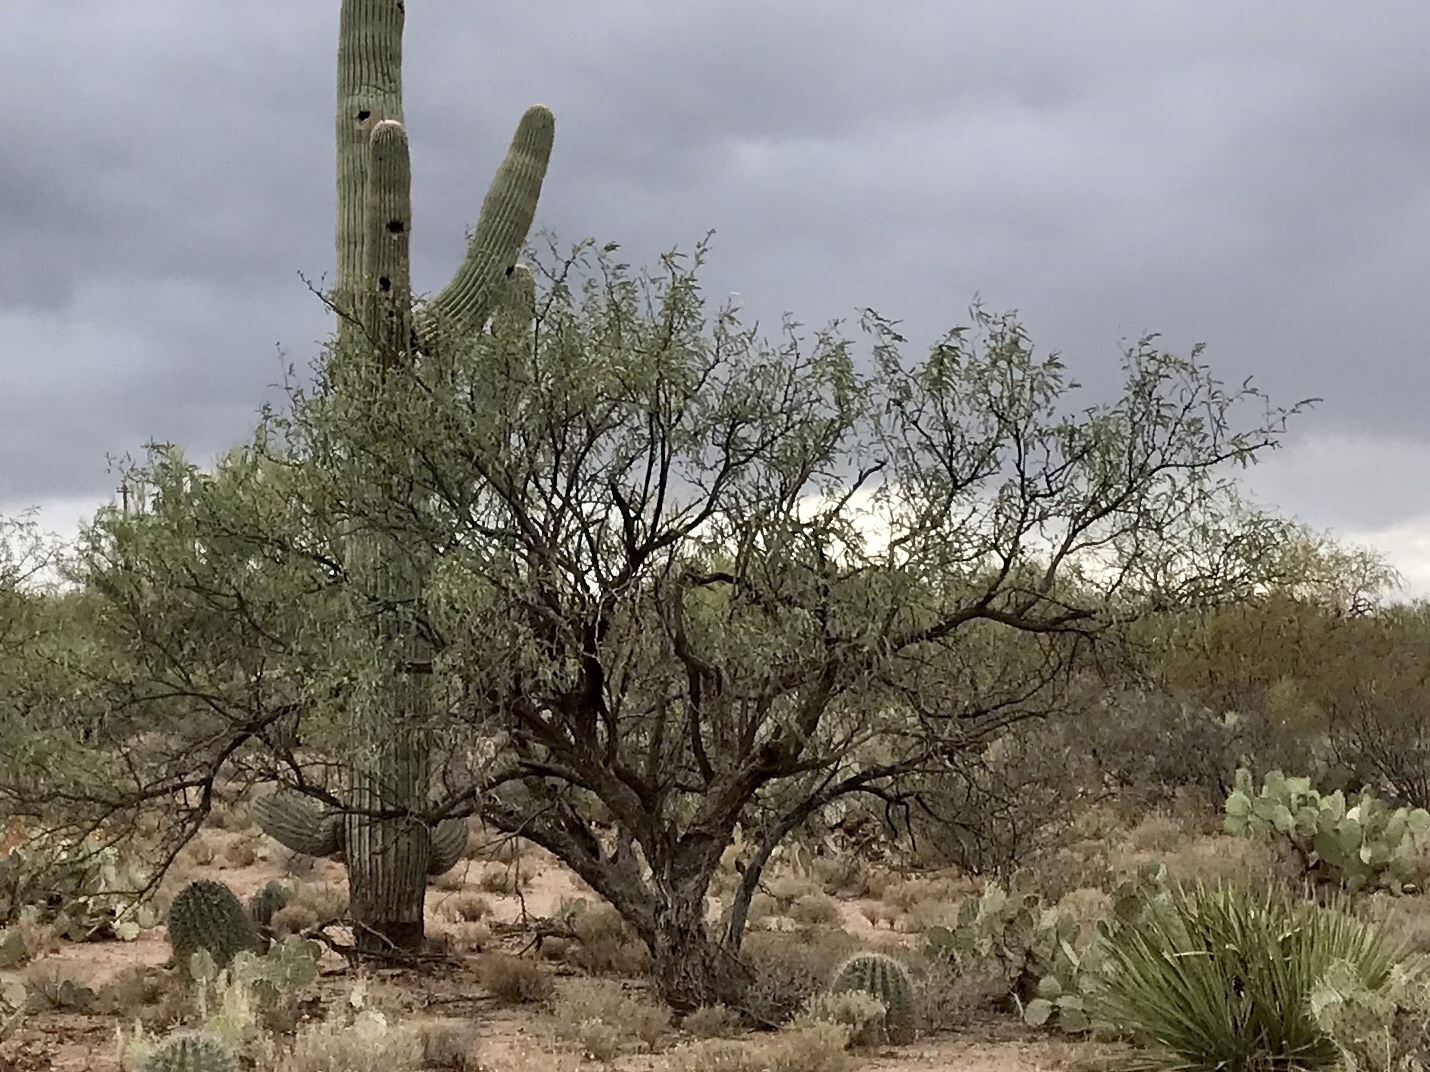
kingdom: Plantae
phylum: Tracheophyta
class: Magnoliopsida
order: Fabales
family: Fabaceae
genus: Prosopis
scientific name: Prosopis velutina
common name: Velvet mesquite
